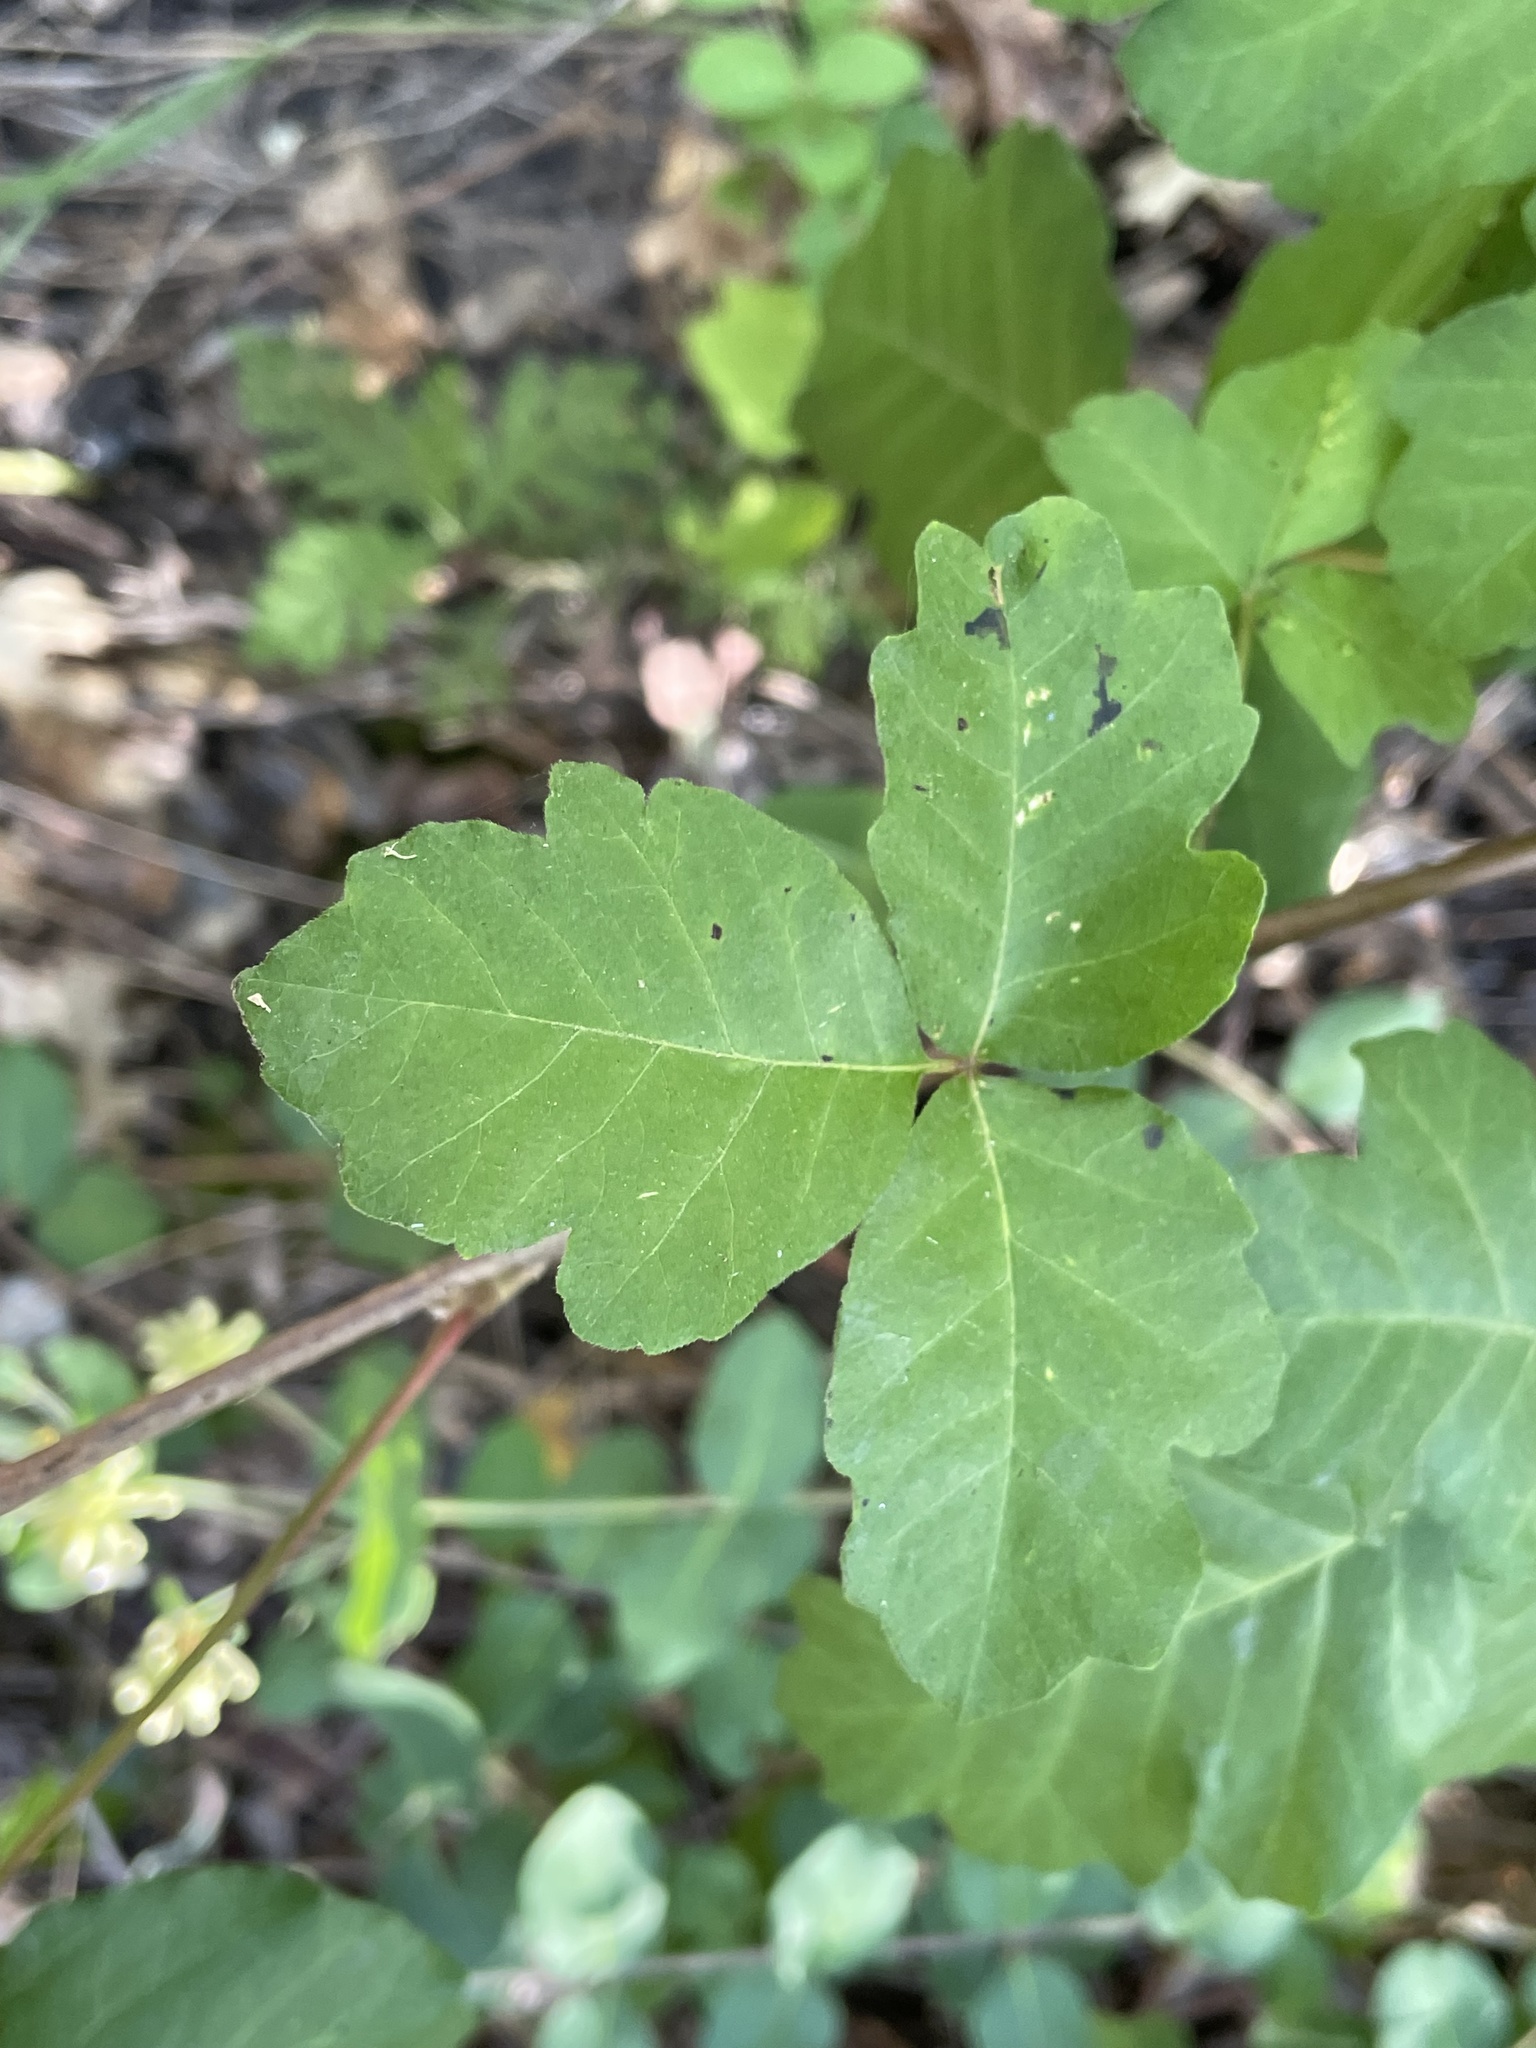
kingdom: Plantae
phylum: Tracheophyta
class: Magnoliopsida
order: Sapindales
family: Anacardiaceae
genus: Toxicodendron
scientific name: Toxicodendron diversilobum
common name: Pacific poison-oak
